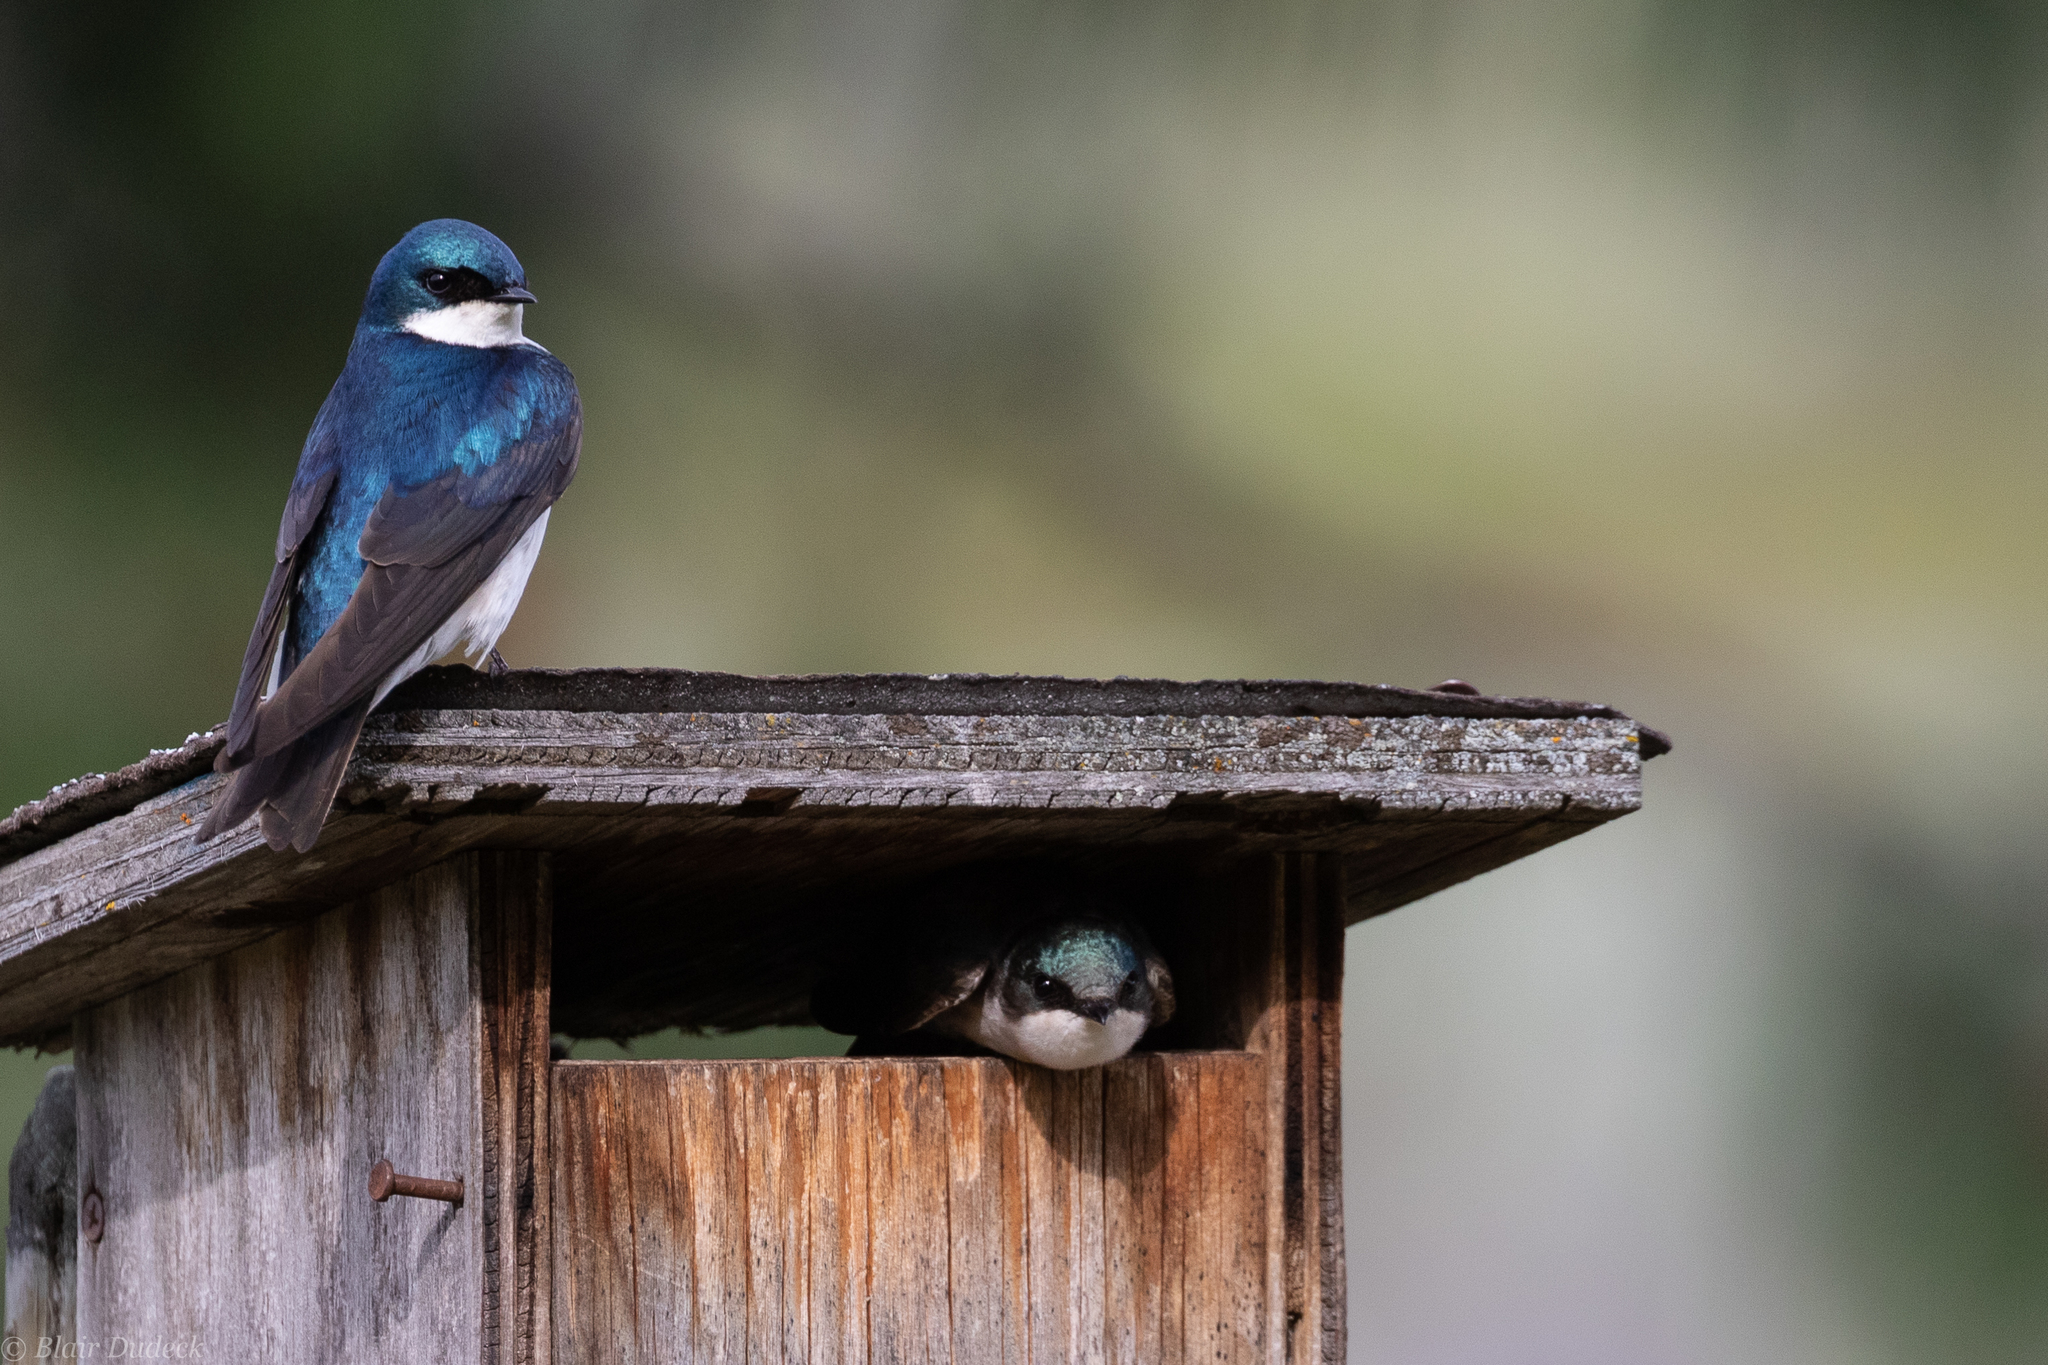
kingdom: Animalia
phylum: Chordata
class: Aves
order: Passeriformes
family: Hirundinidae
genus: Tachycineta
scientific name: Tachycineta bicolor
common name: Tree swallow
